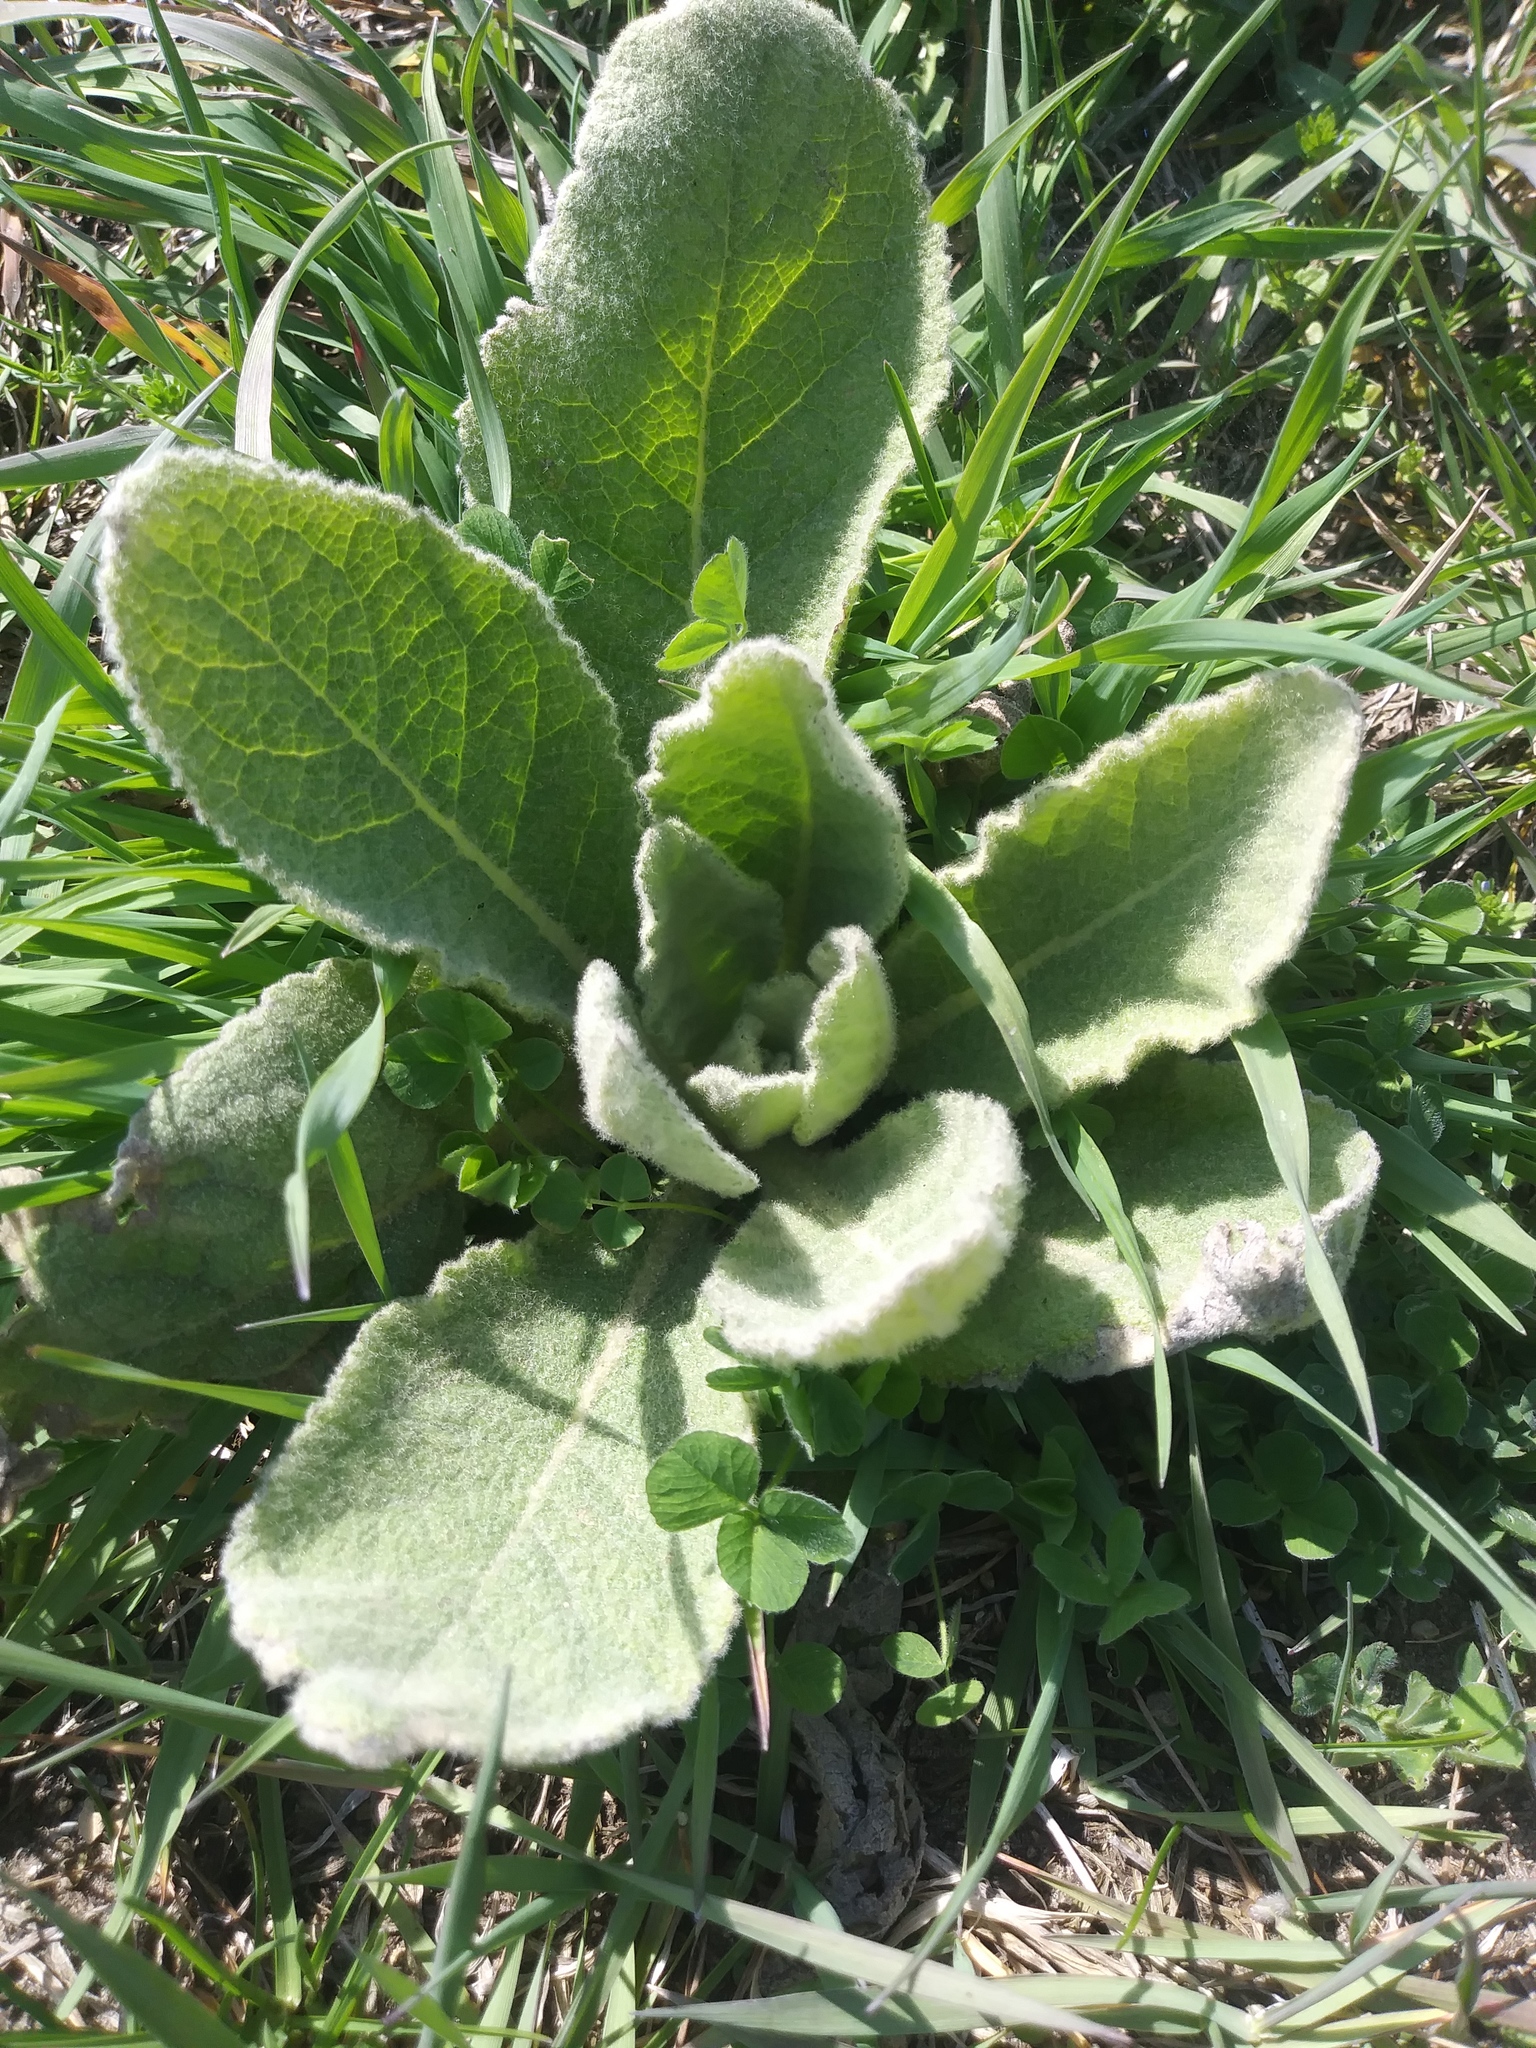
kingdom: Plantae
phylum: Tracheophyta
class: Magnoliopsida
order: Lamiales
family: Scrophulariaceae
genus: Verbascum
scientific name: Verbascum thapsus
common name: Common mullein
